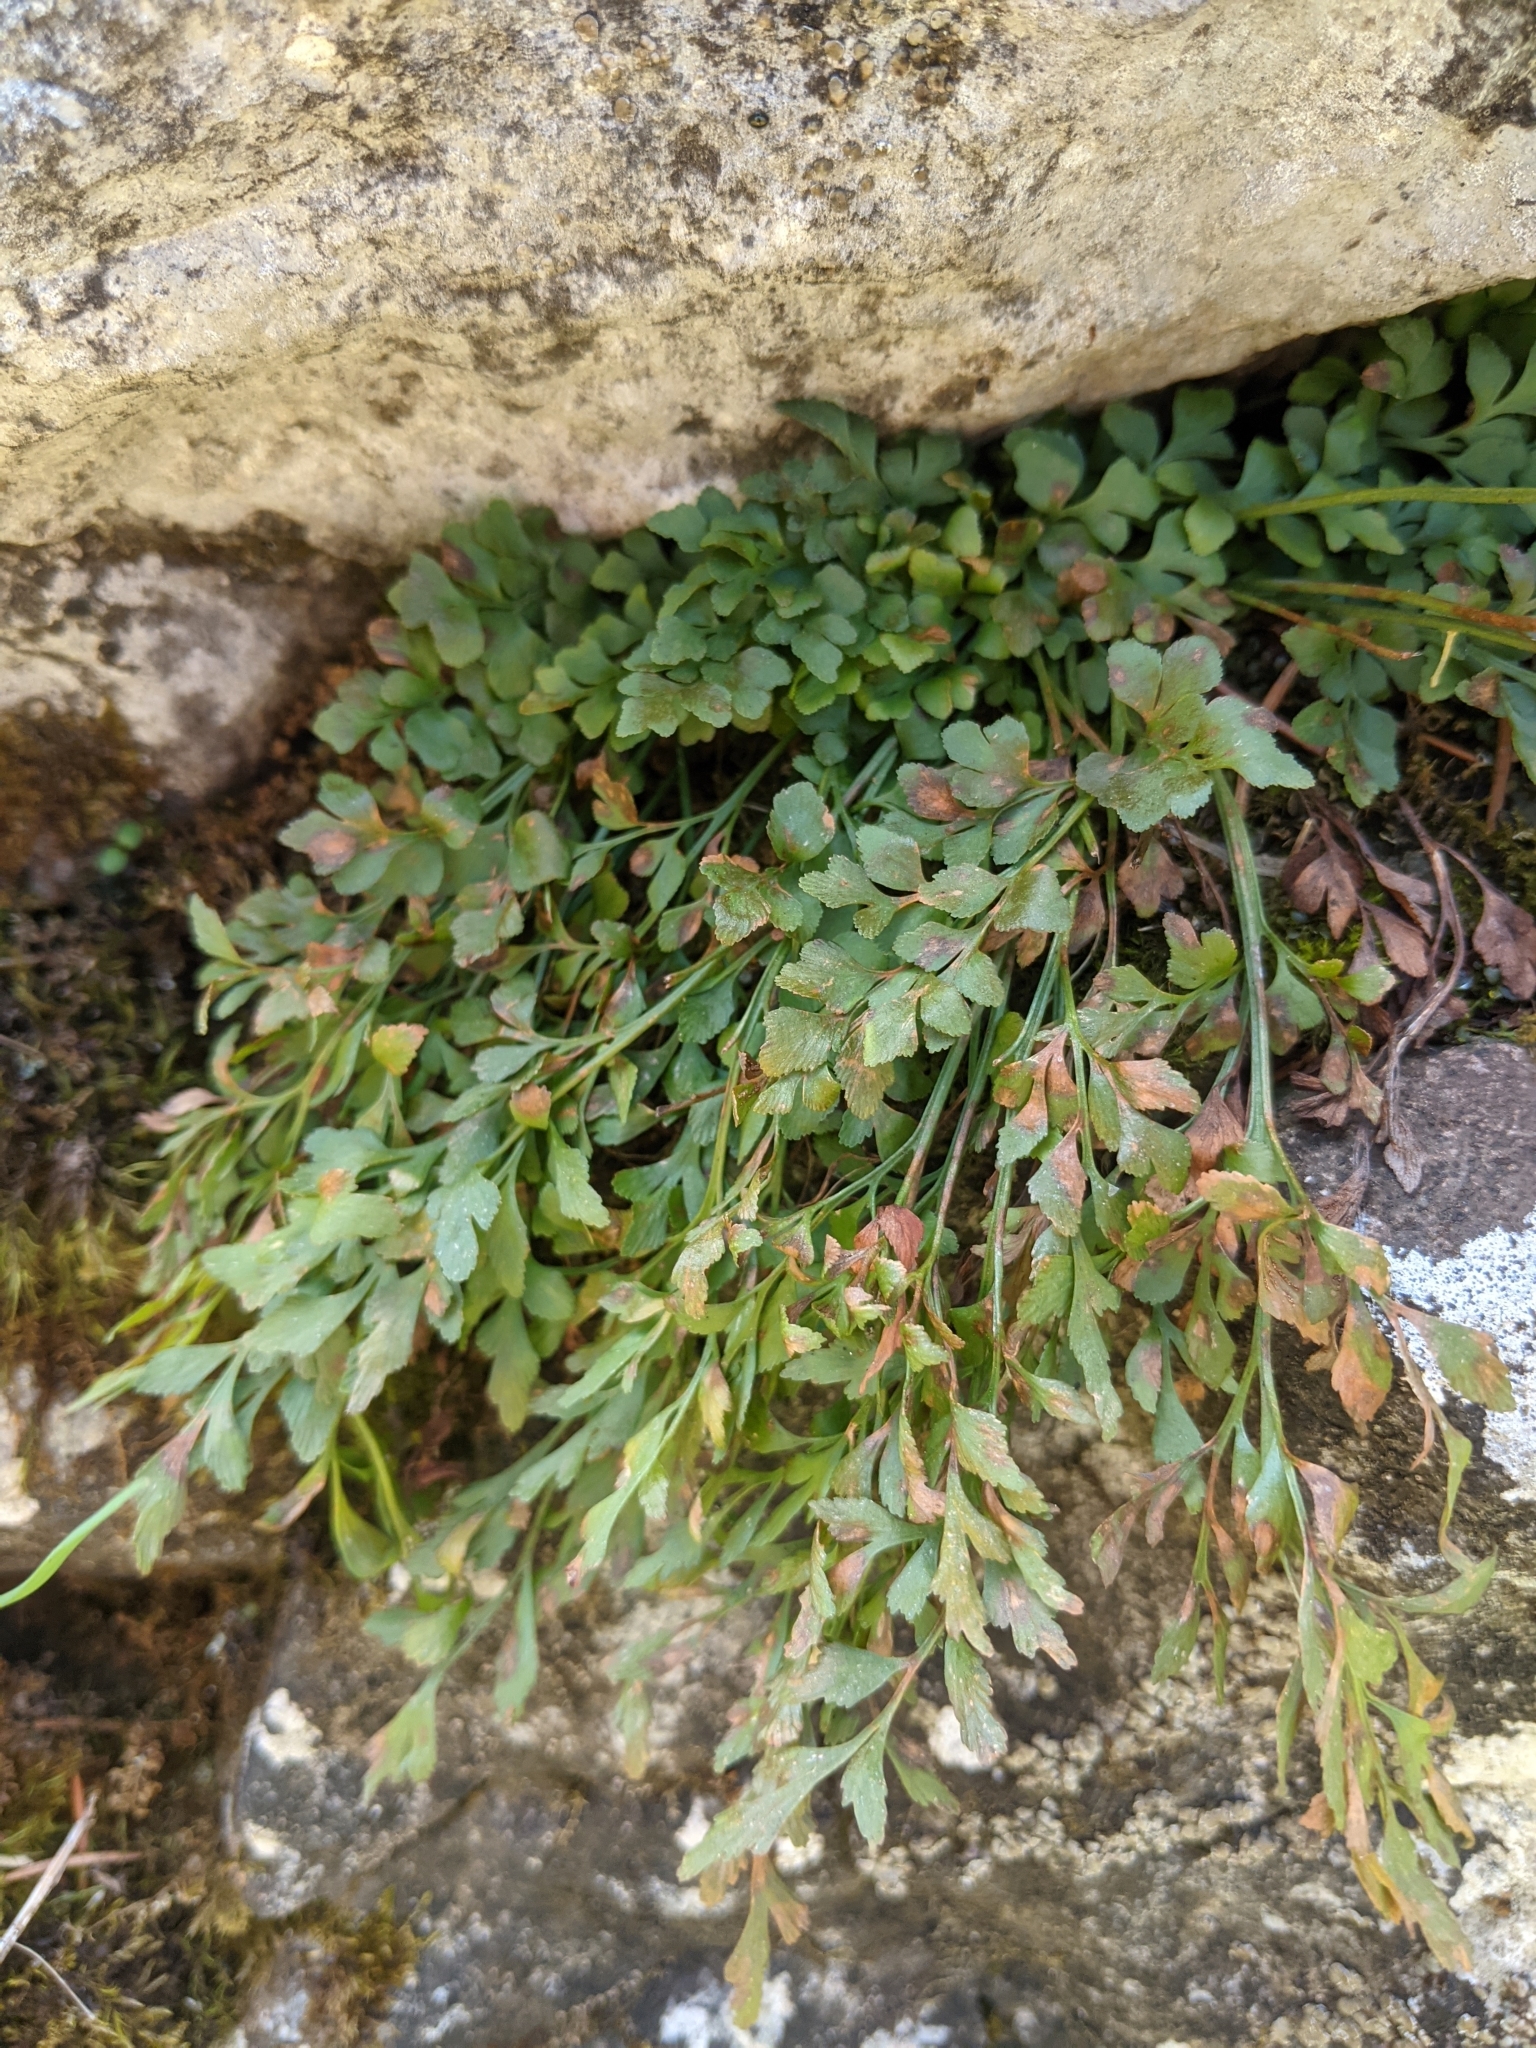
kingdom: Plantae
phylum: Tracheophyta
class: Polypodiopsida
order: Polypodiales
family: Aspleniaceae
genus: Asplenium
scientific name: Asplenium ruta-muraria
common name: Wall-rue
